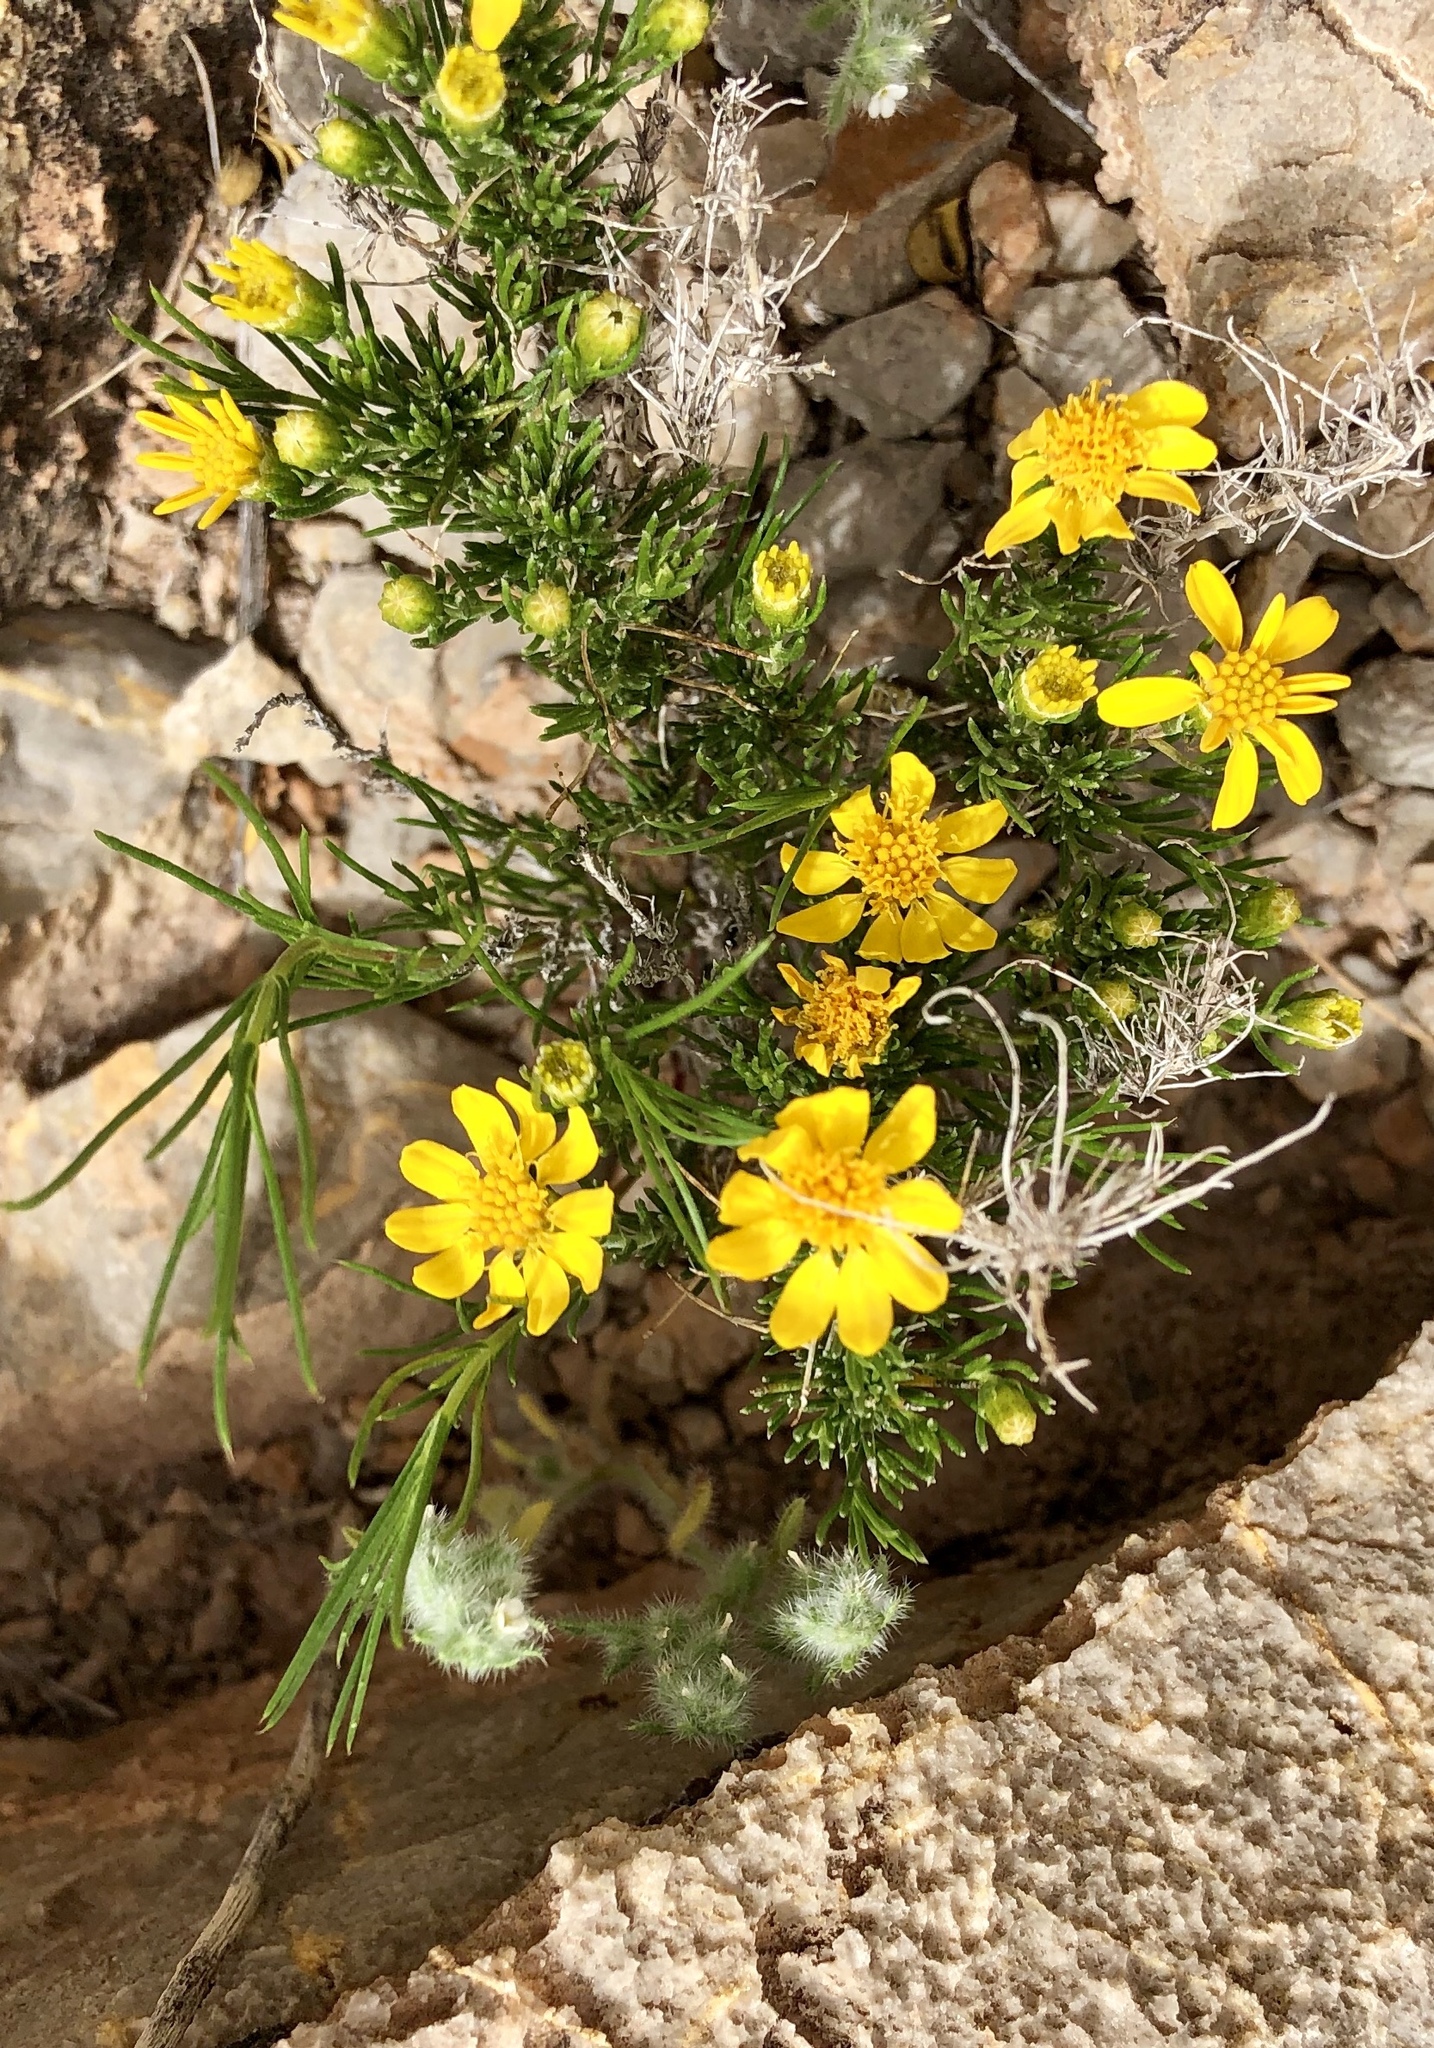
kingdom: Plantae
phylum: Tracheophyta
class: Magnoliopsida
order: Asterales
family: Asteraceae
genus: Thymophylla
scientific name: Thymophylla pentachaeta
